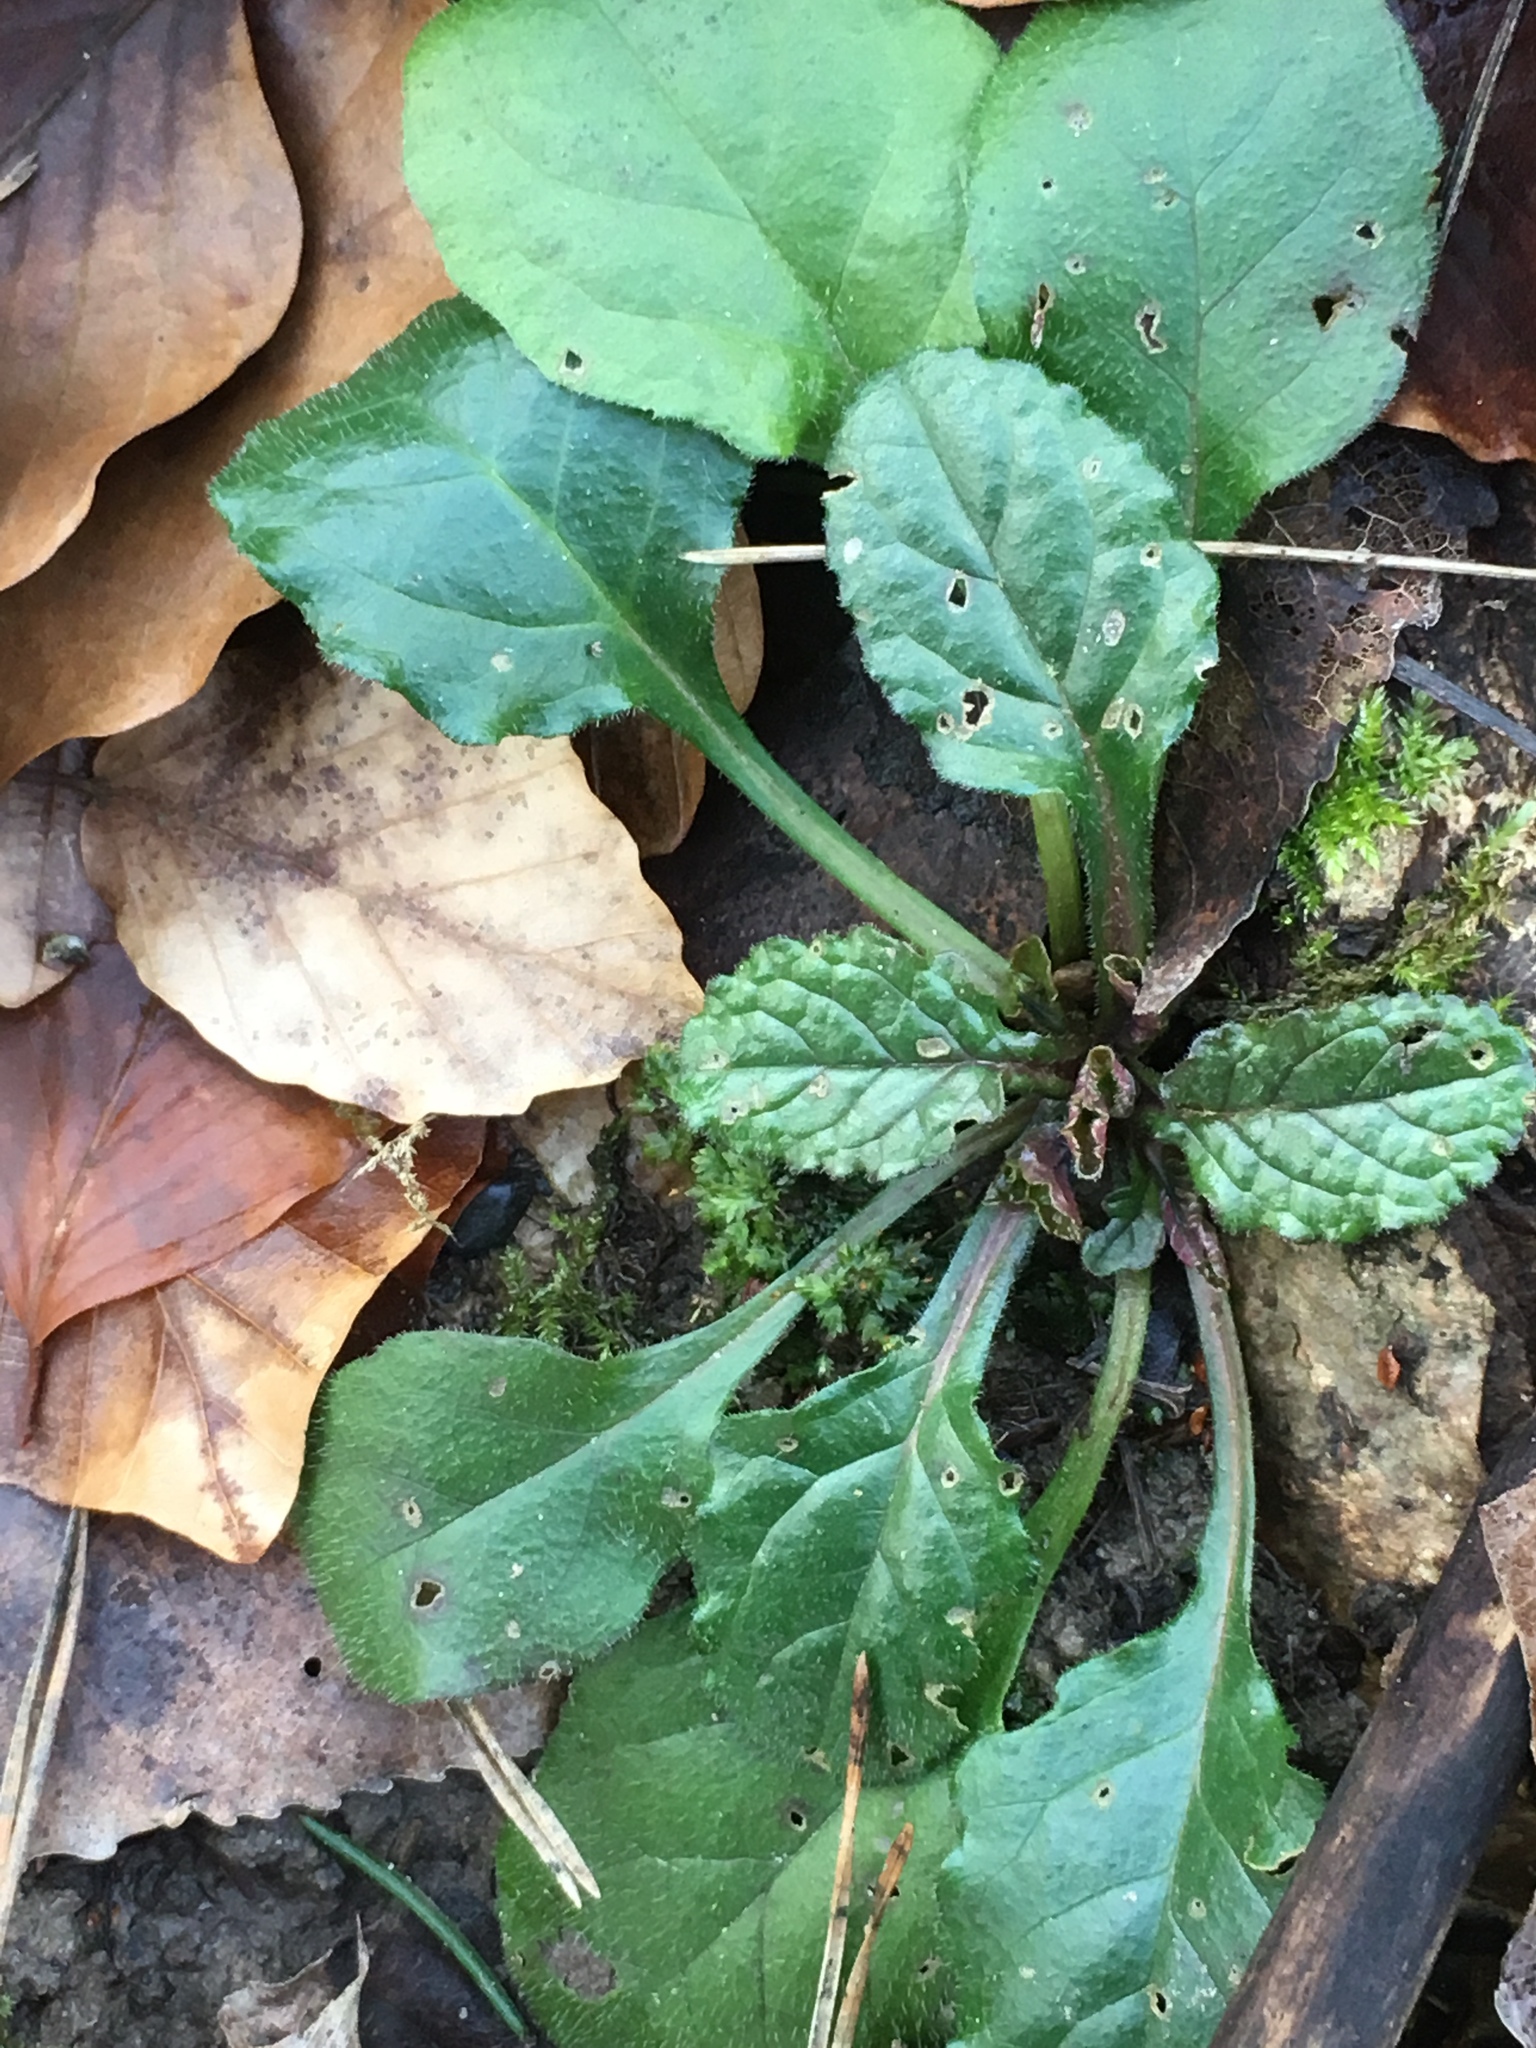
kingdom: Plantae
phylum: Tracheophyta
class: Magnoliopsida
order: Lamiales
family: Lamiaceae
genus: Ajuga
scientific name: Ajuga reptans
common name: Bugle
